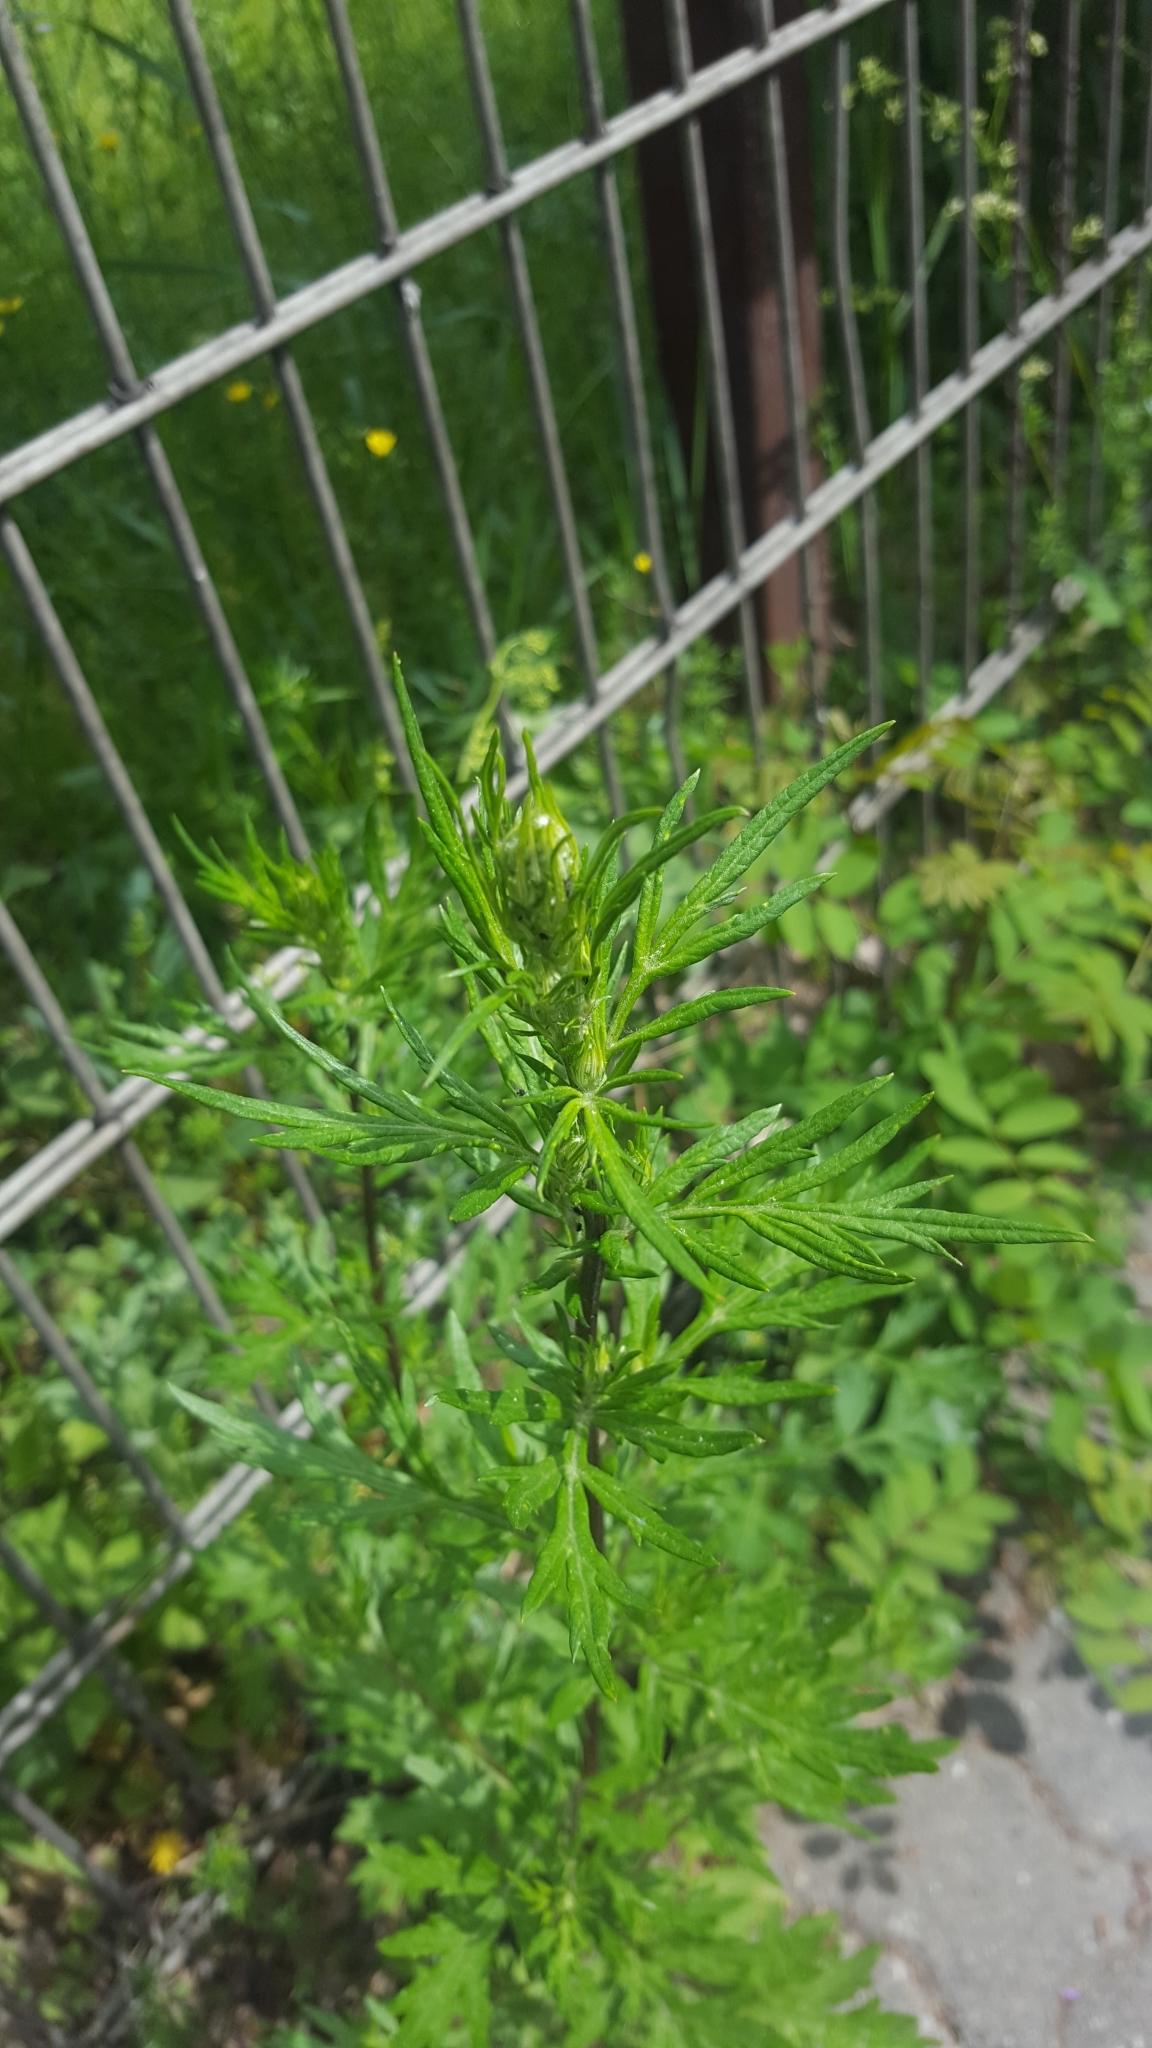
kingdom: Plantae
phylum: Tracheophyta
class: Magnoliopsida
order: Asterales
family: Asteraceae
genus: Artemisia
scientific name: Artemisia vulgaris
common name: Mugwort
